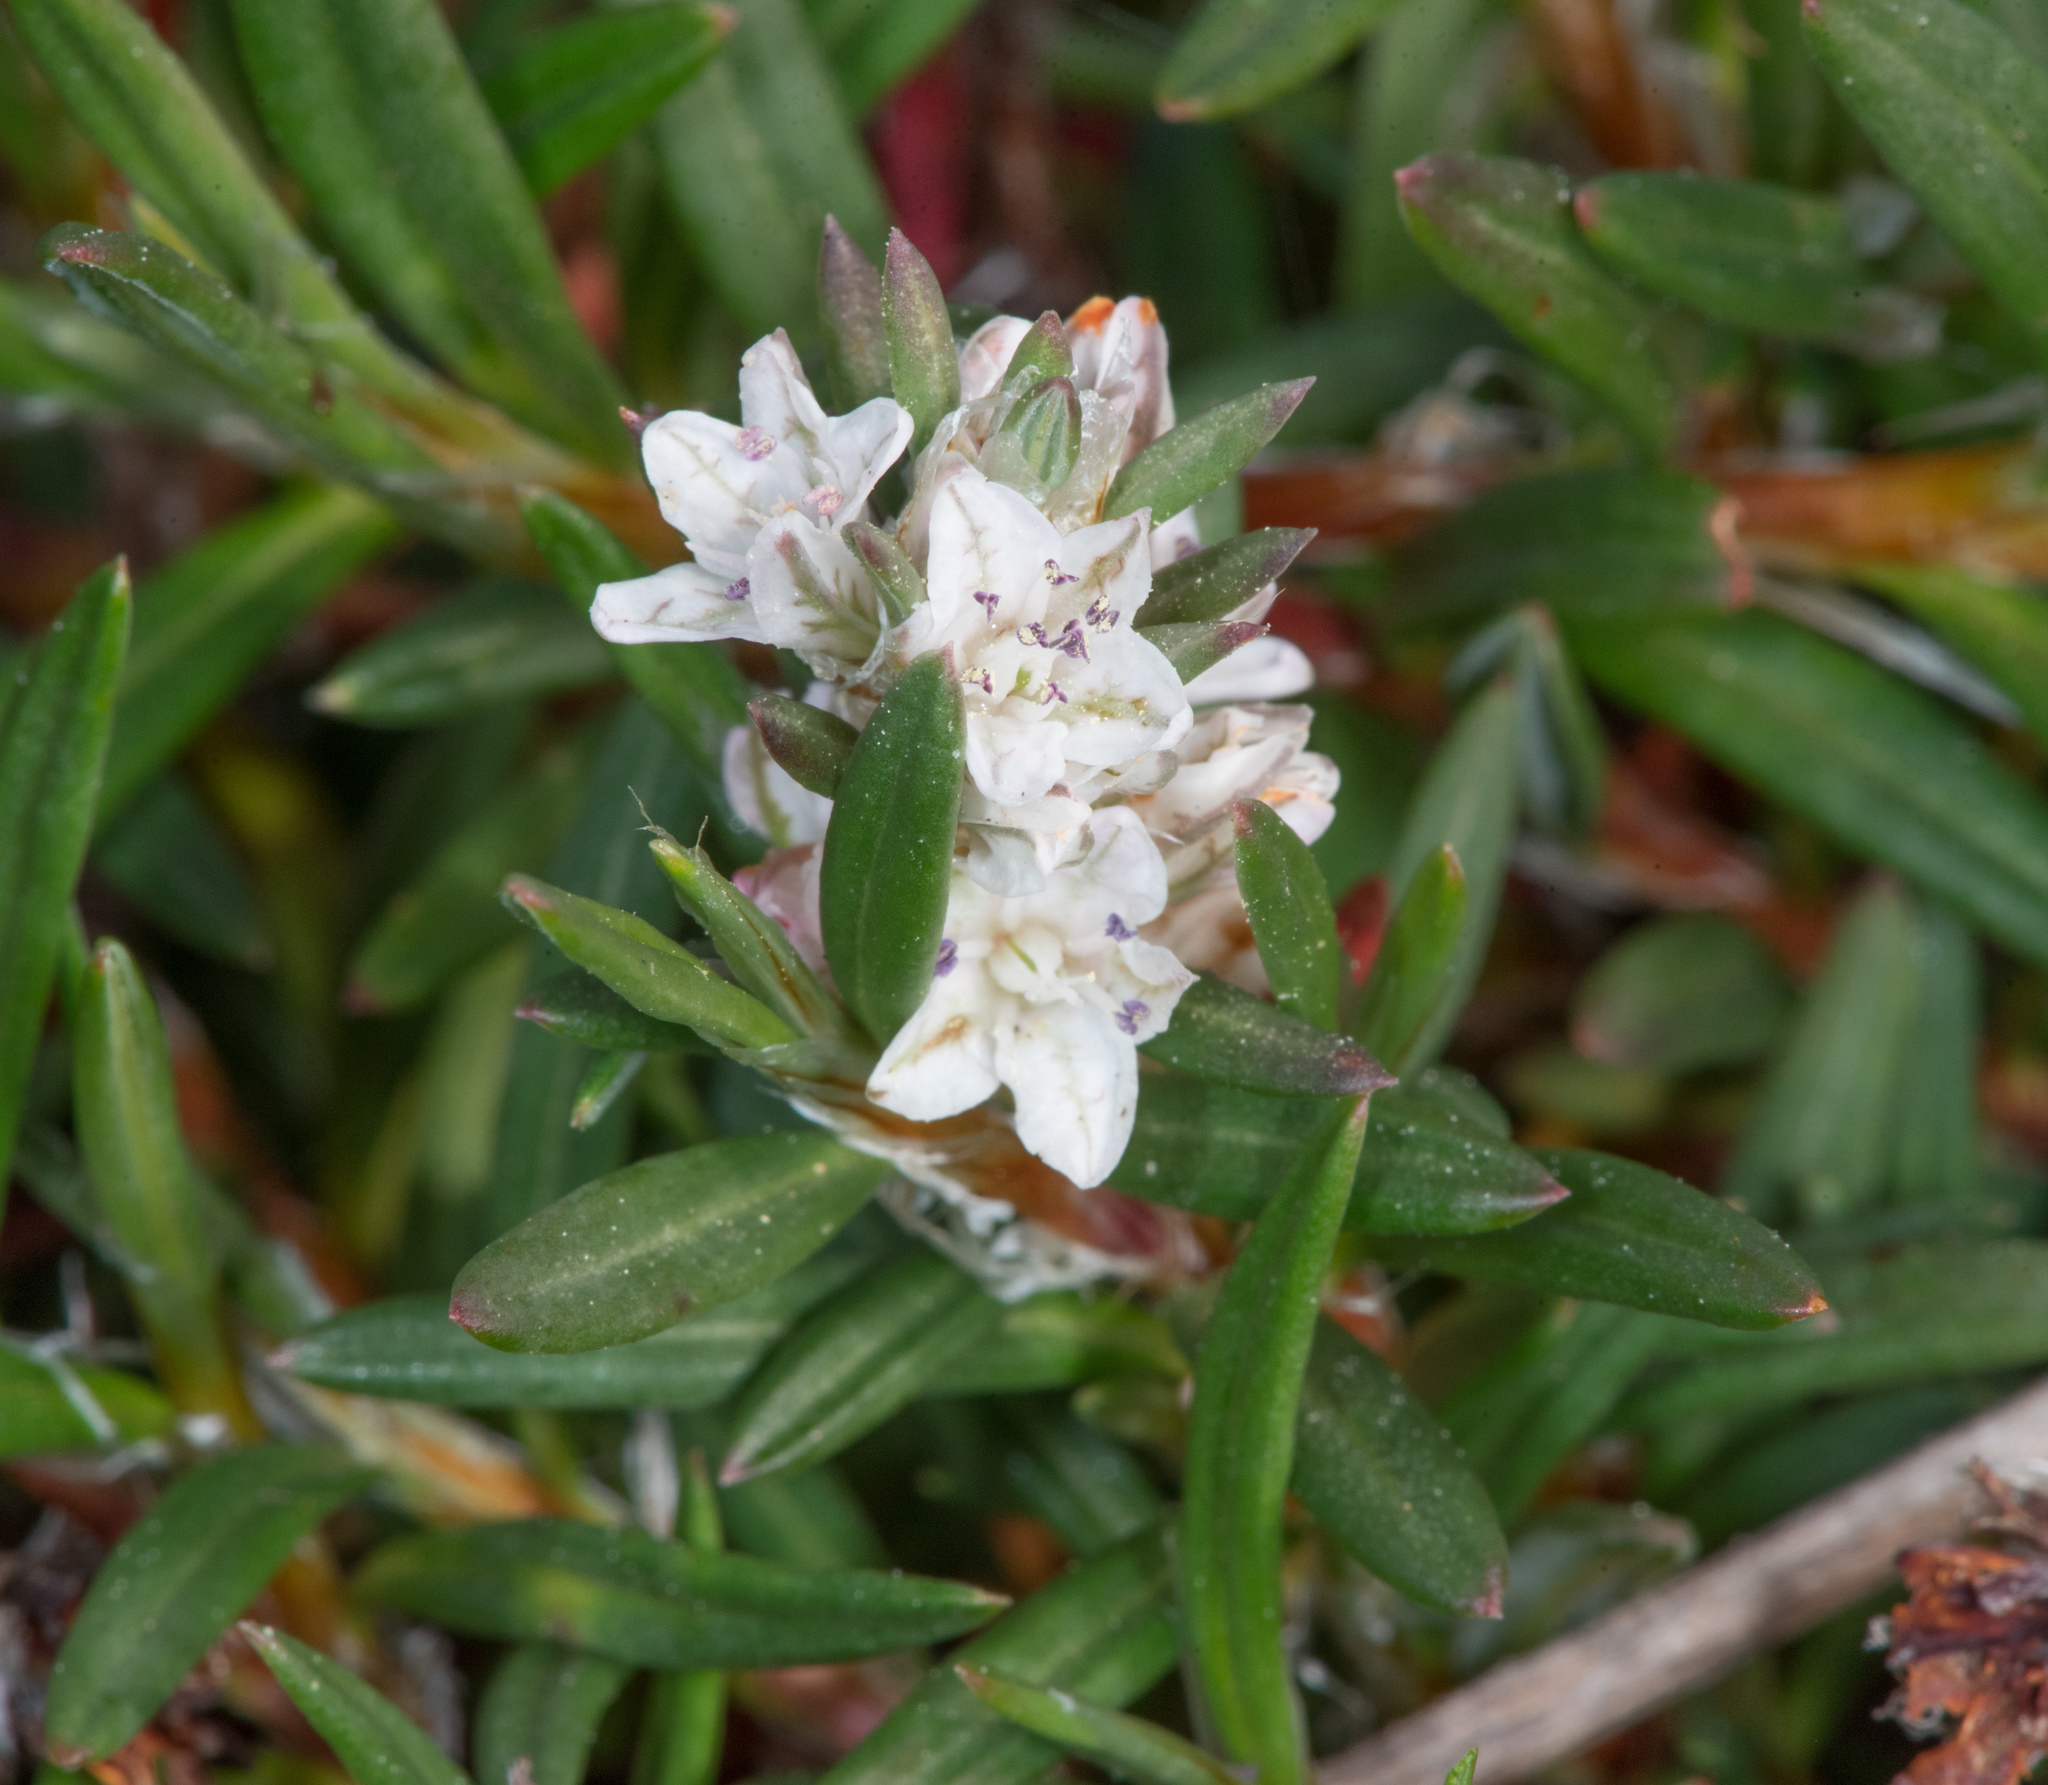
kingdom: Plantae
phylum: Tracheophyta
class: Magnoliopsida
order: Caryophyllales
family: Polygonaceae
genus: Polygonum
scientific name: Polygonum paronychia
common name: Dune knotweed
